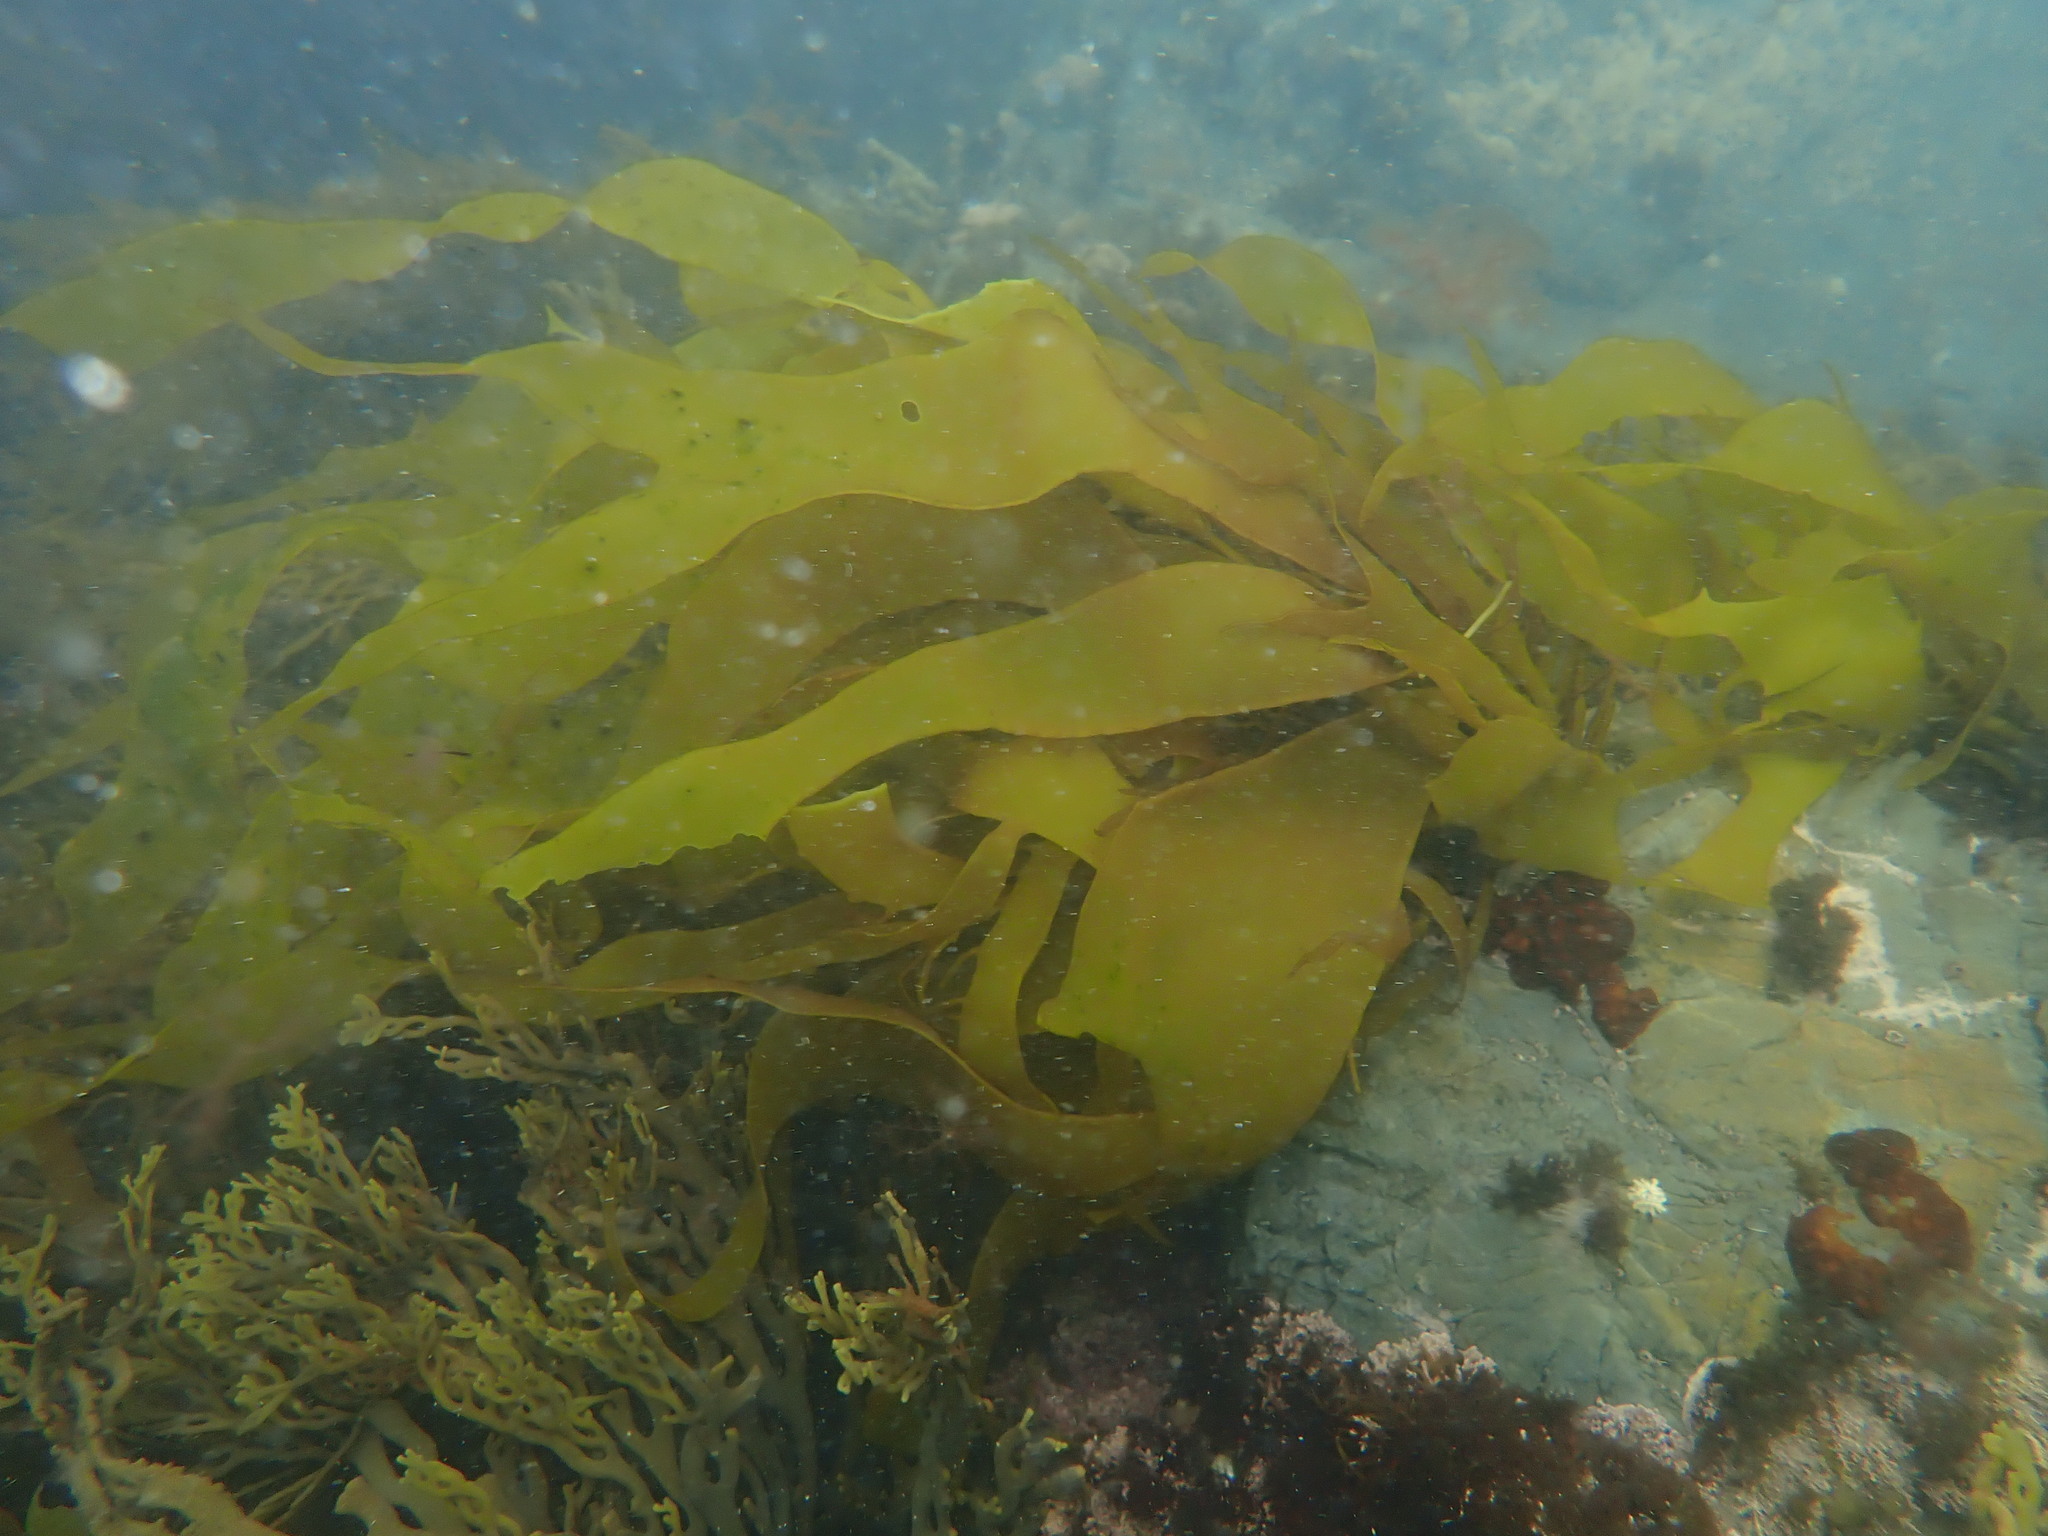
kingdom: Plantae
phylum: Rhodophyta
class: Florideophyceae
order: Gigartinales
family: Gigartinaceae
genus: Sarcothalia
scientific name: Sarcothalia
